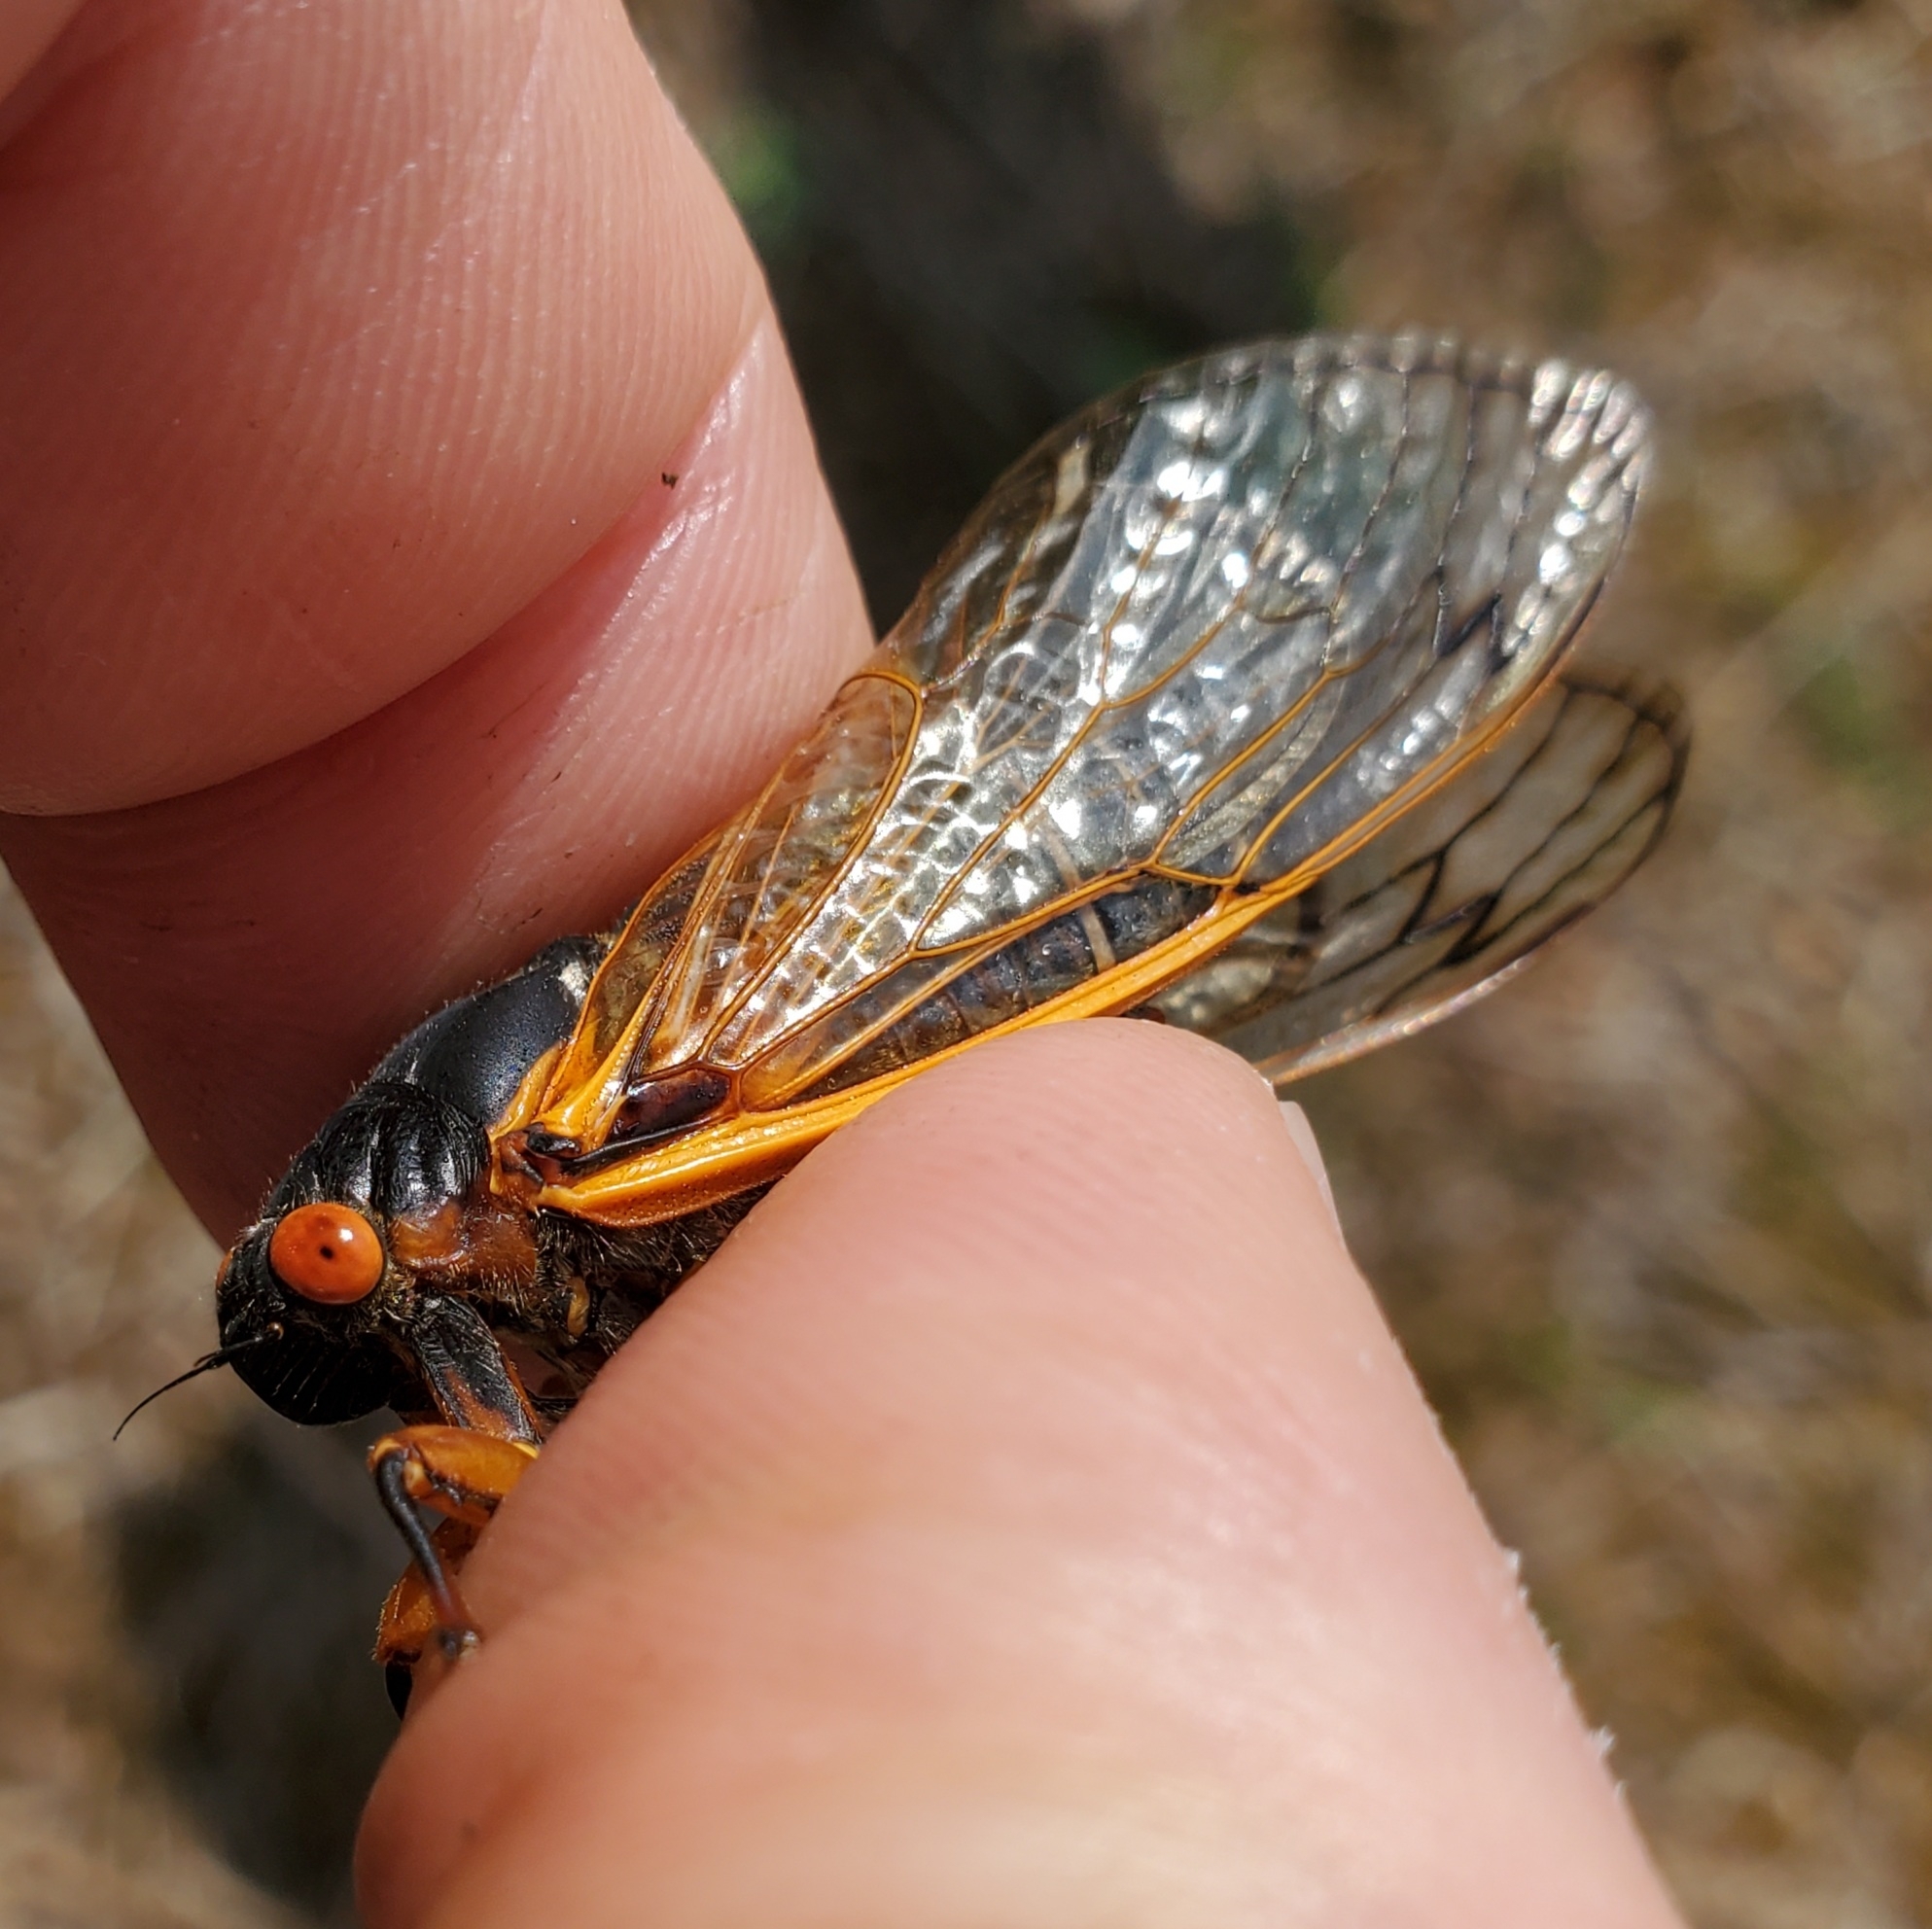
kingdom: Animalia
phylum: Arthropoda
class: Insecta
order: Hemiptera
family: Cicadidae
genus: Magicicada
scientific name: Magicicada septendecim
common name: Periodical cicada
